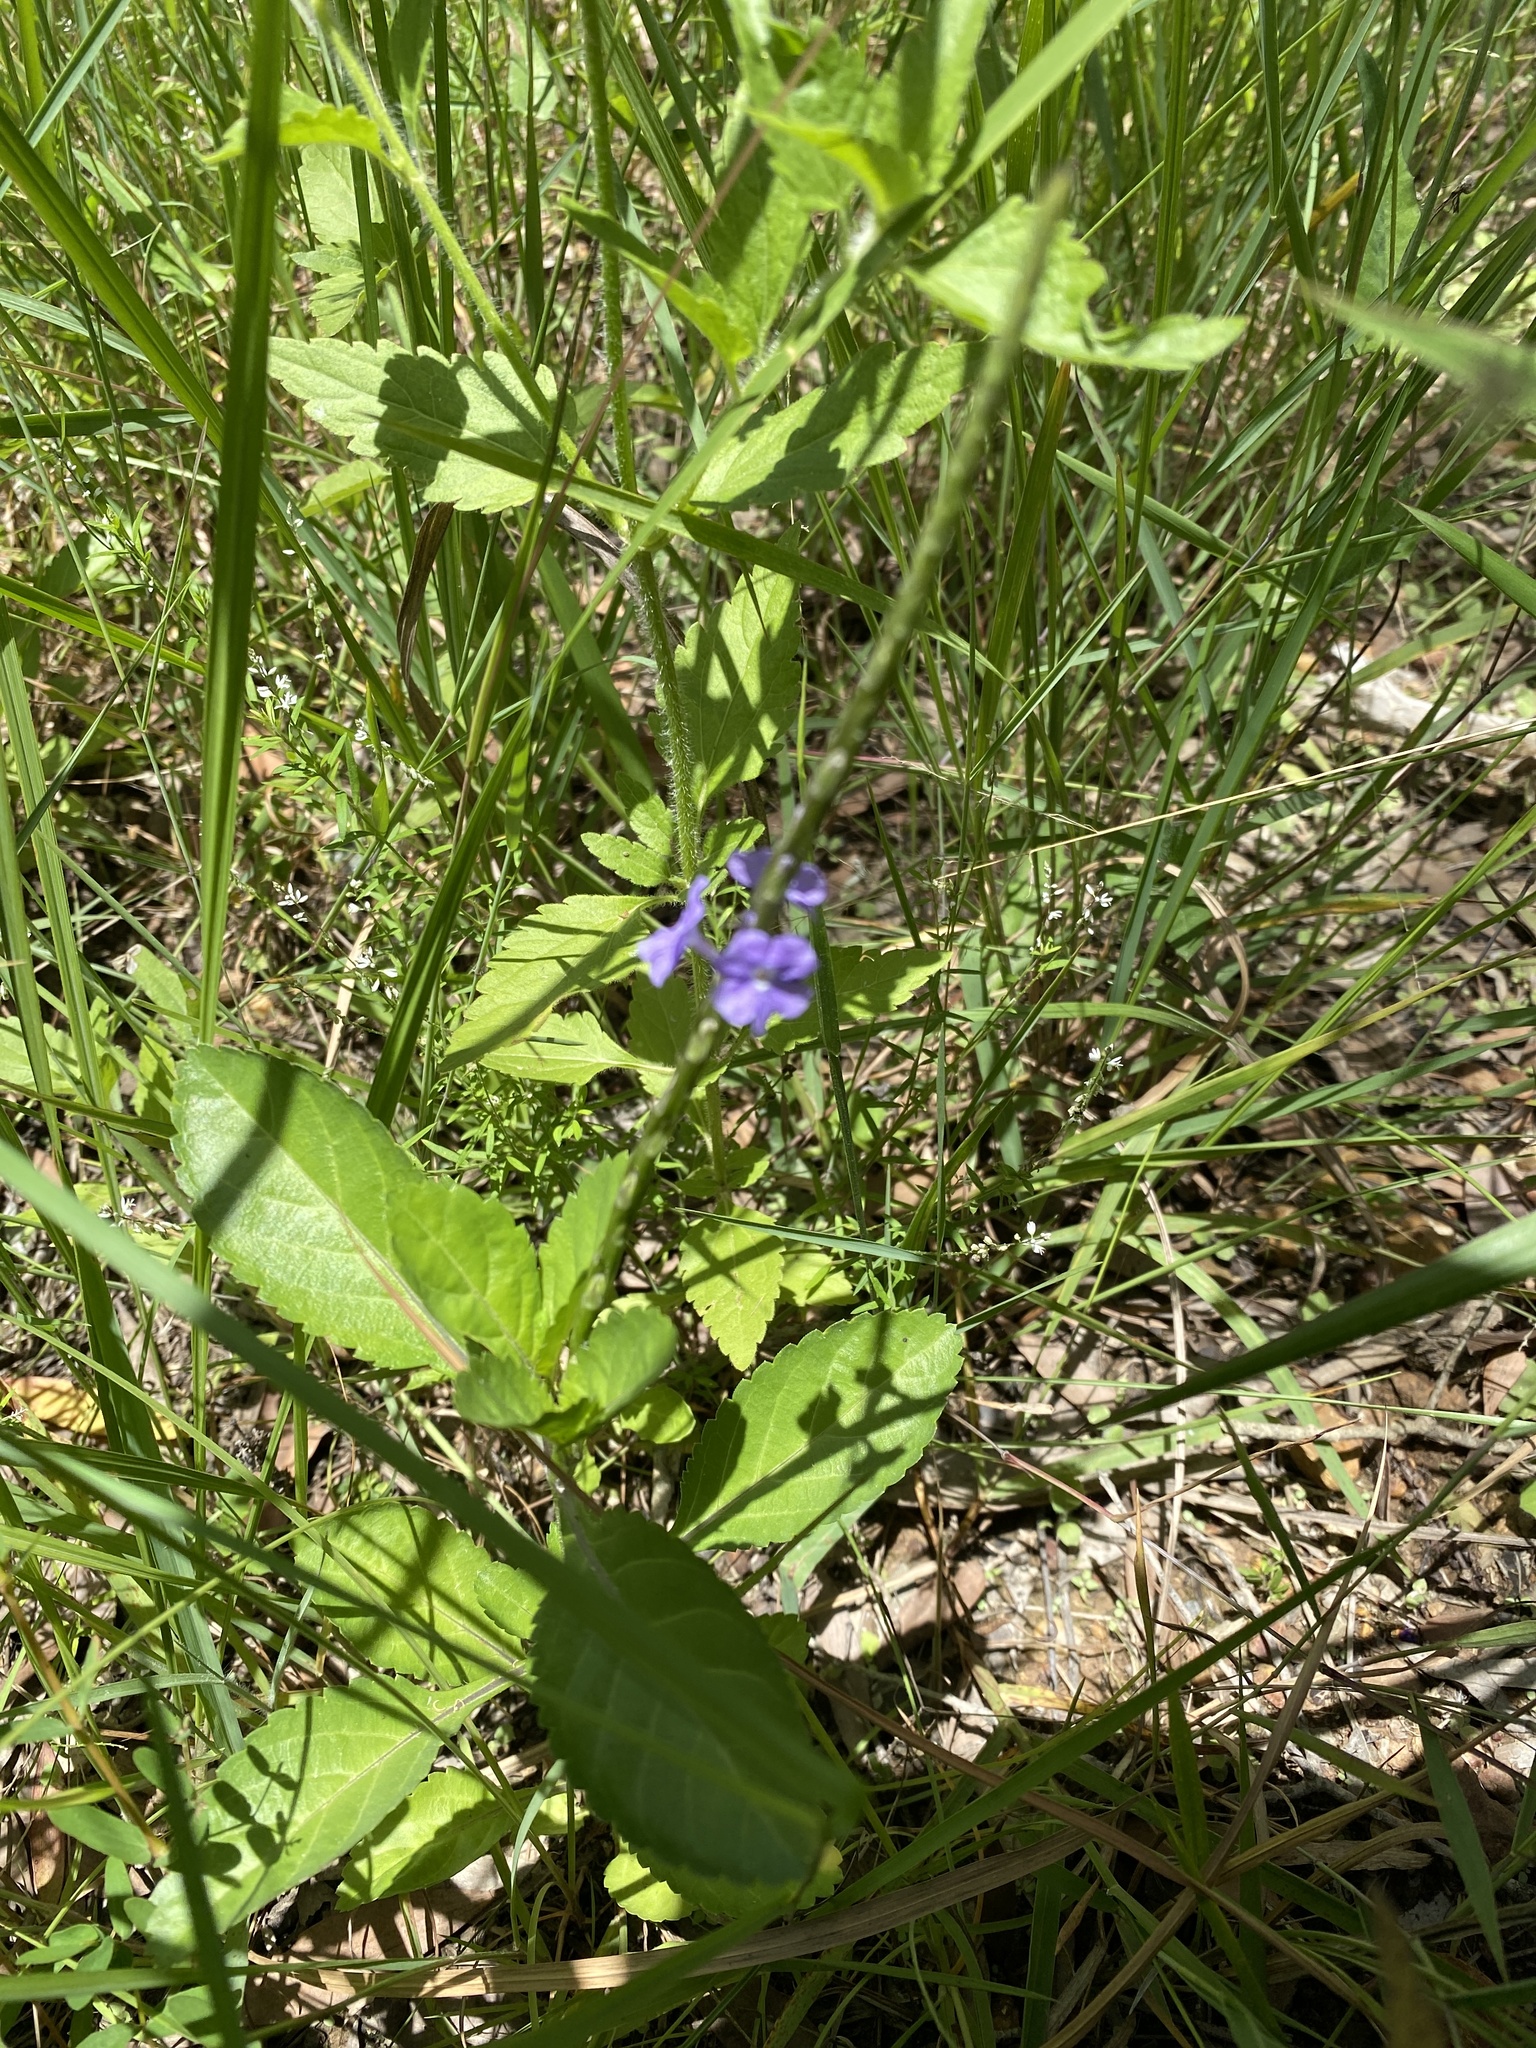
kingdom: Plantae
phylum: Tracheophyta
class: Magnoliopsida
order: Lamiales
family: Verbenaceae
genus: Stachytarpheta
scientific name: Stachytarpheta jamaicensis
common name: Light-blue snakeweed
